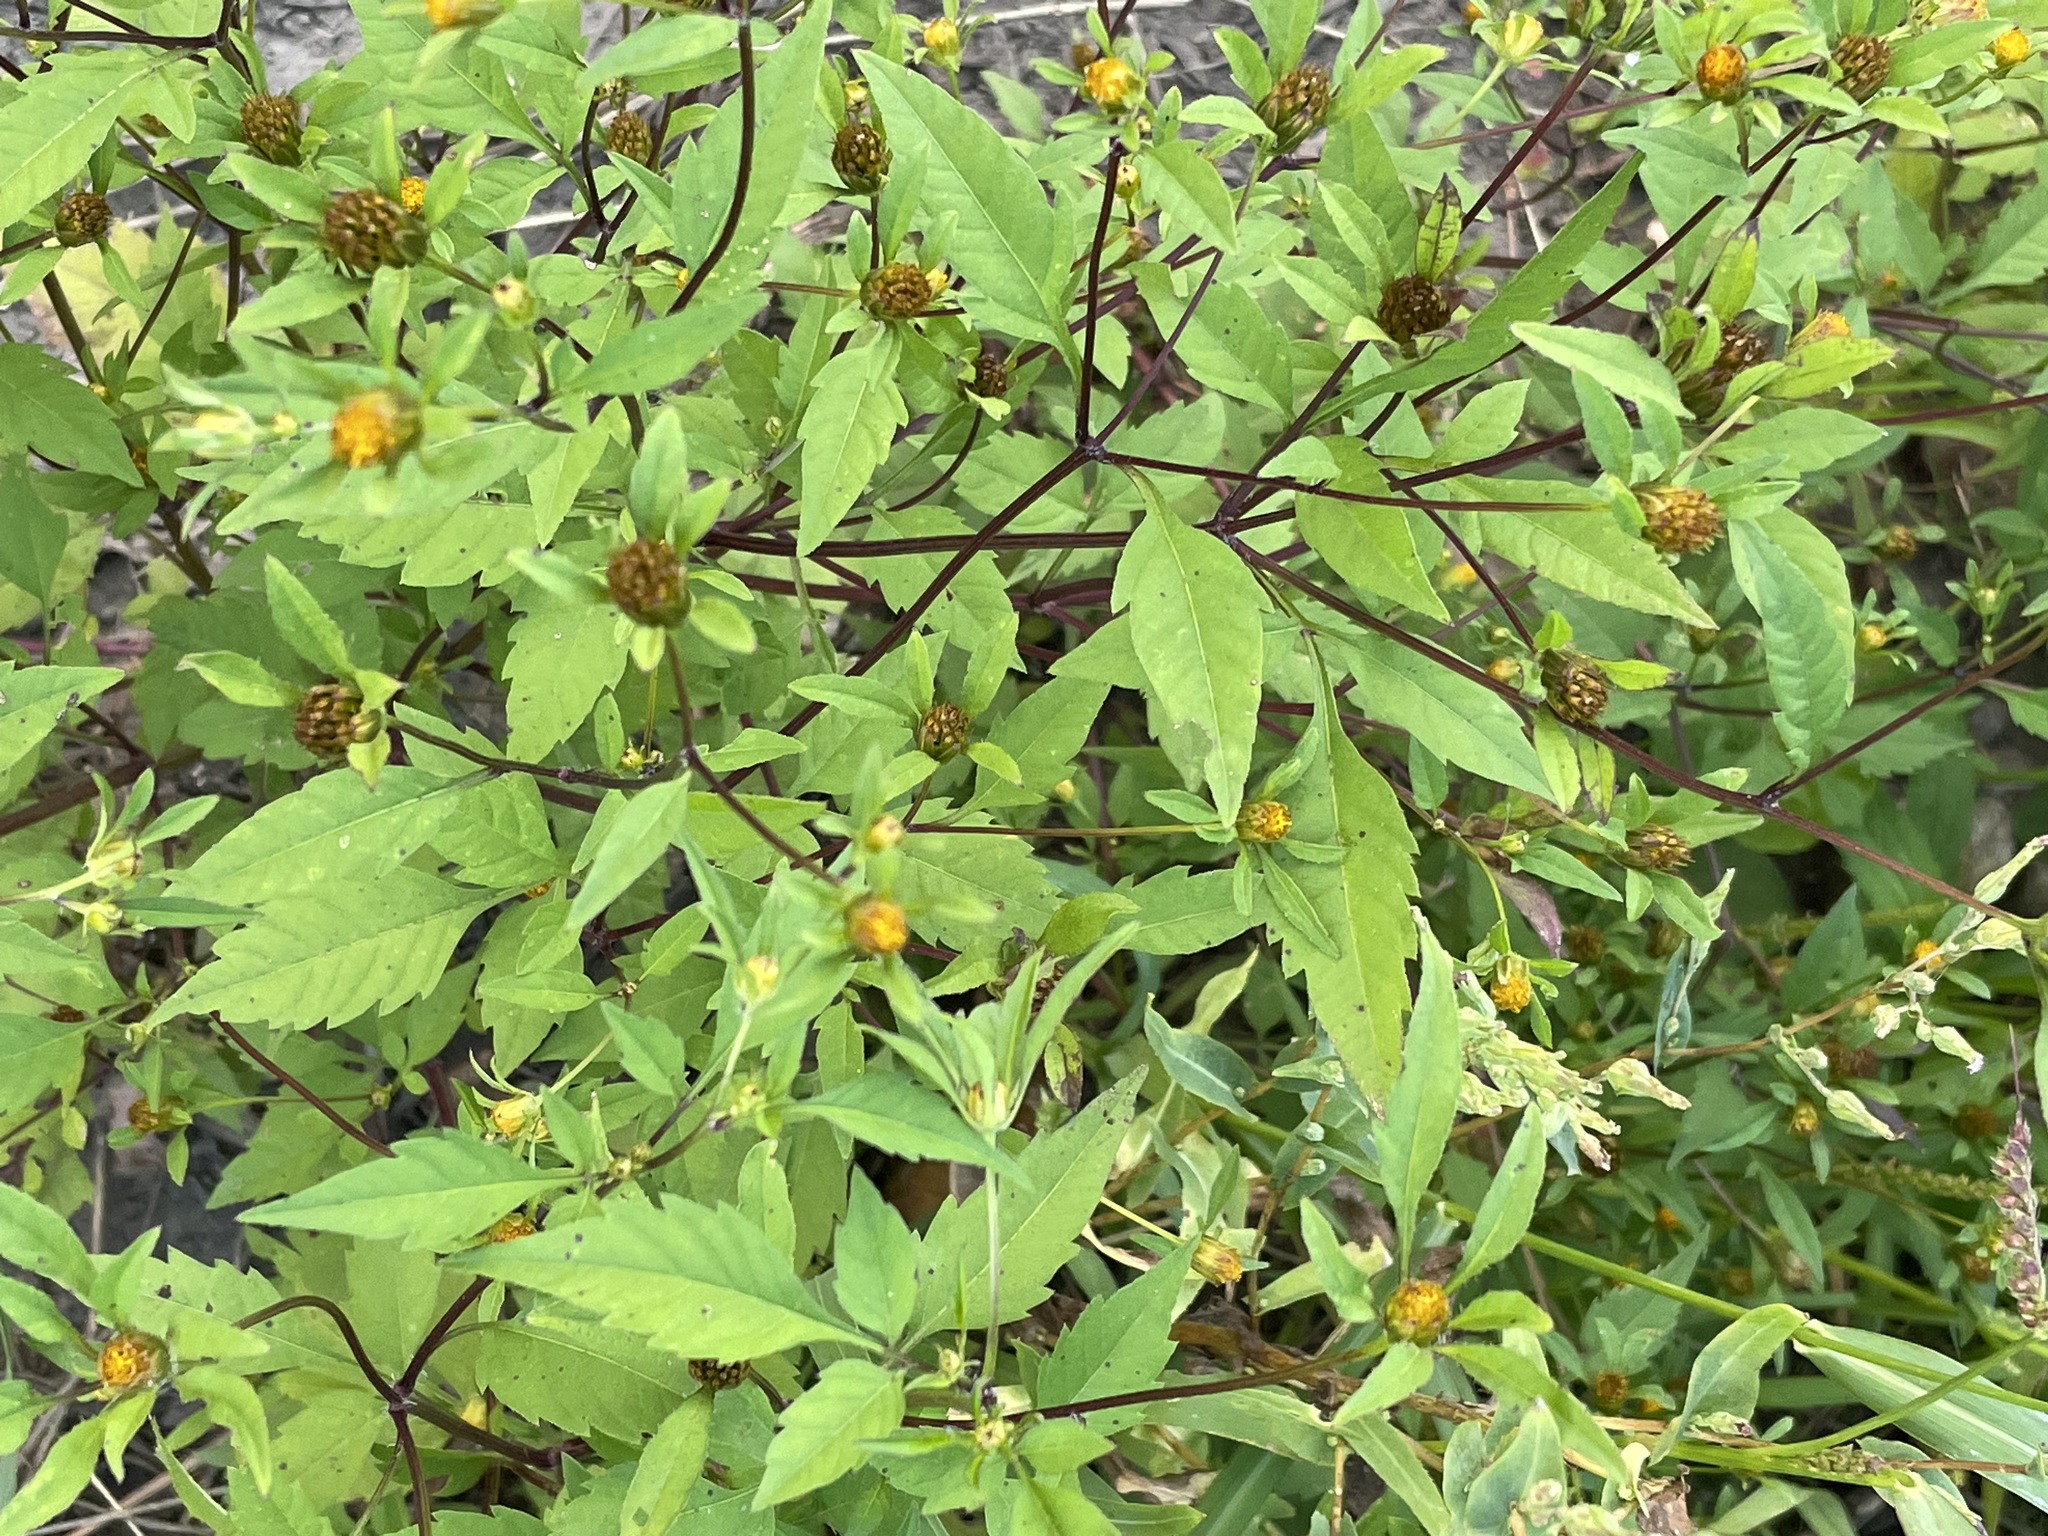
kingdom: Plantae
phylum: Tracheophyta
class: Magnoliopsida
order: Asterales
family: Asteraceae
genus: Bidens
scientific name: Bidens frondosa
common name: Beggarticks
